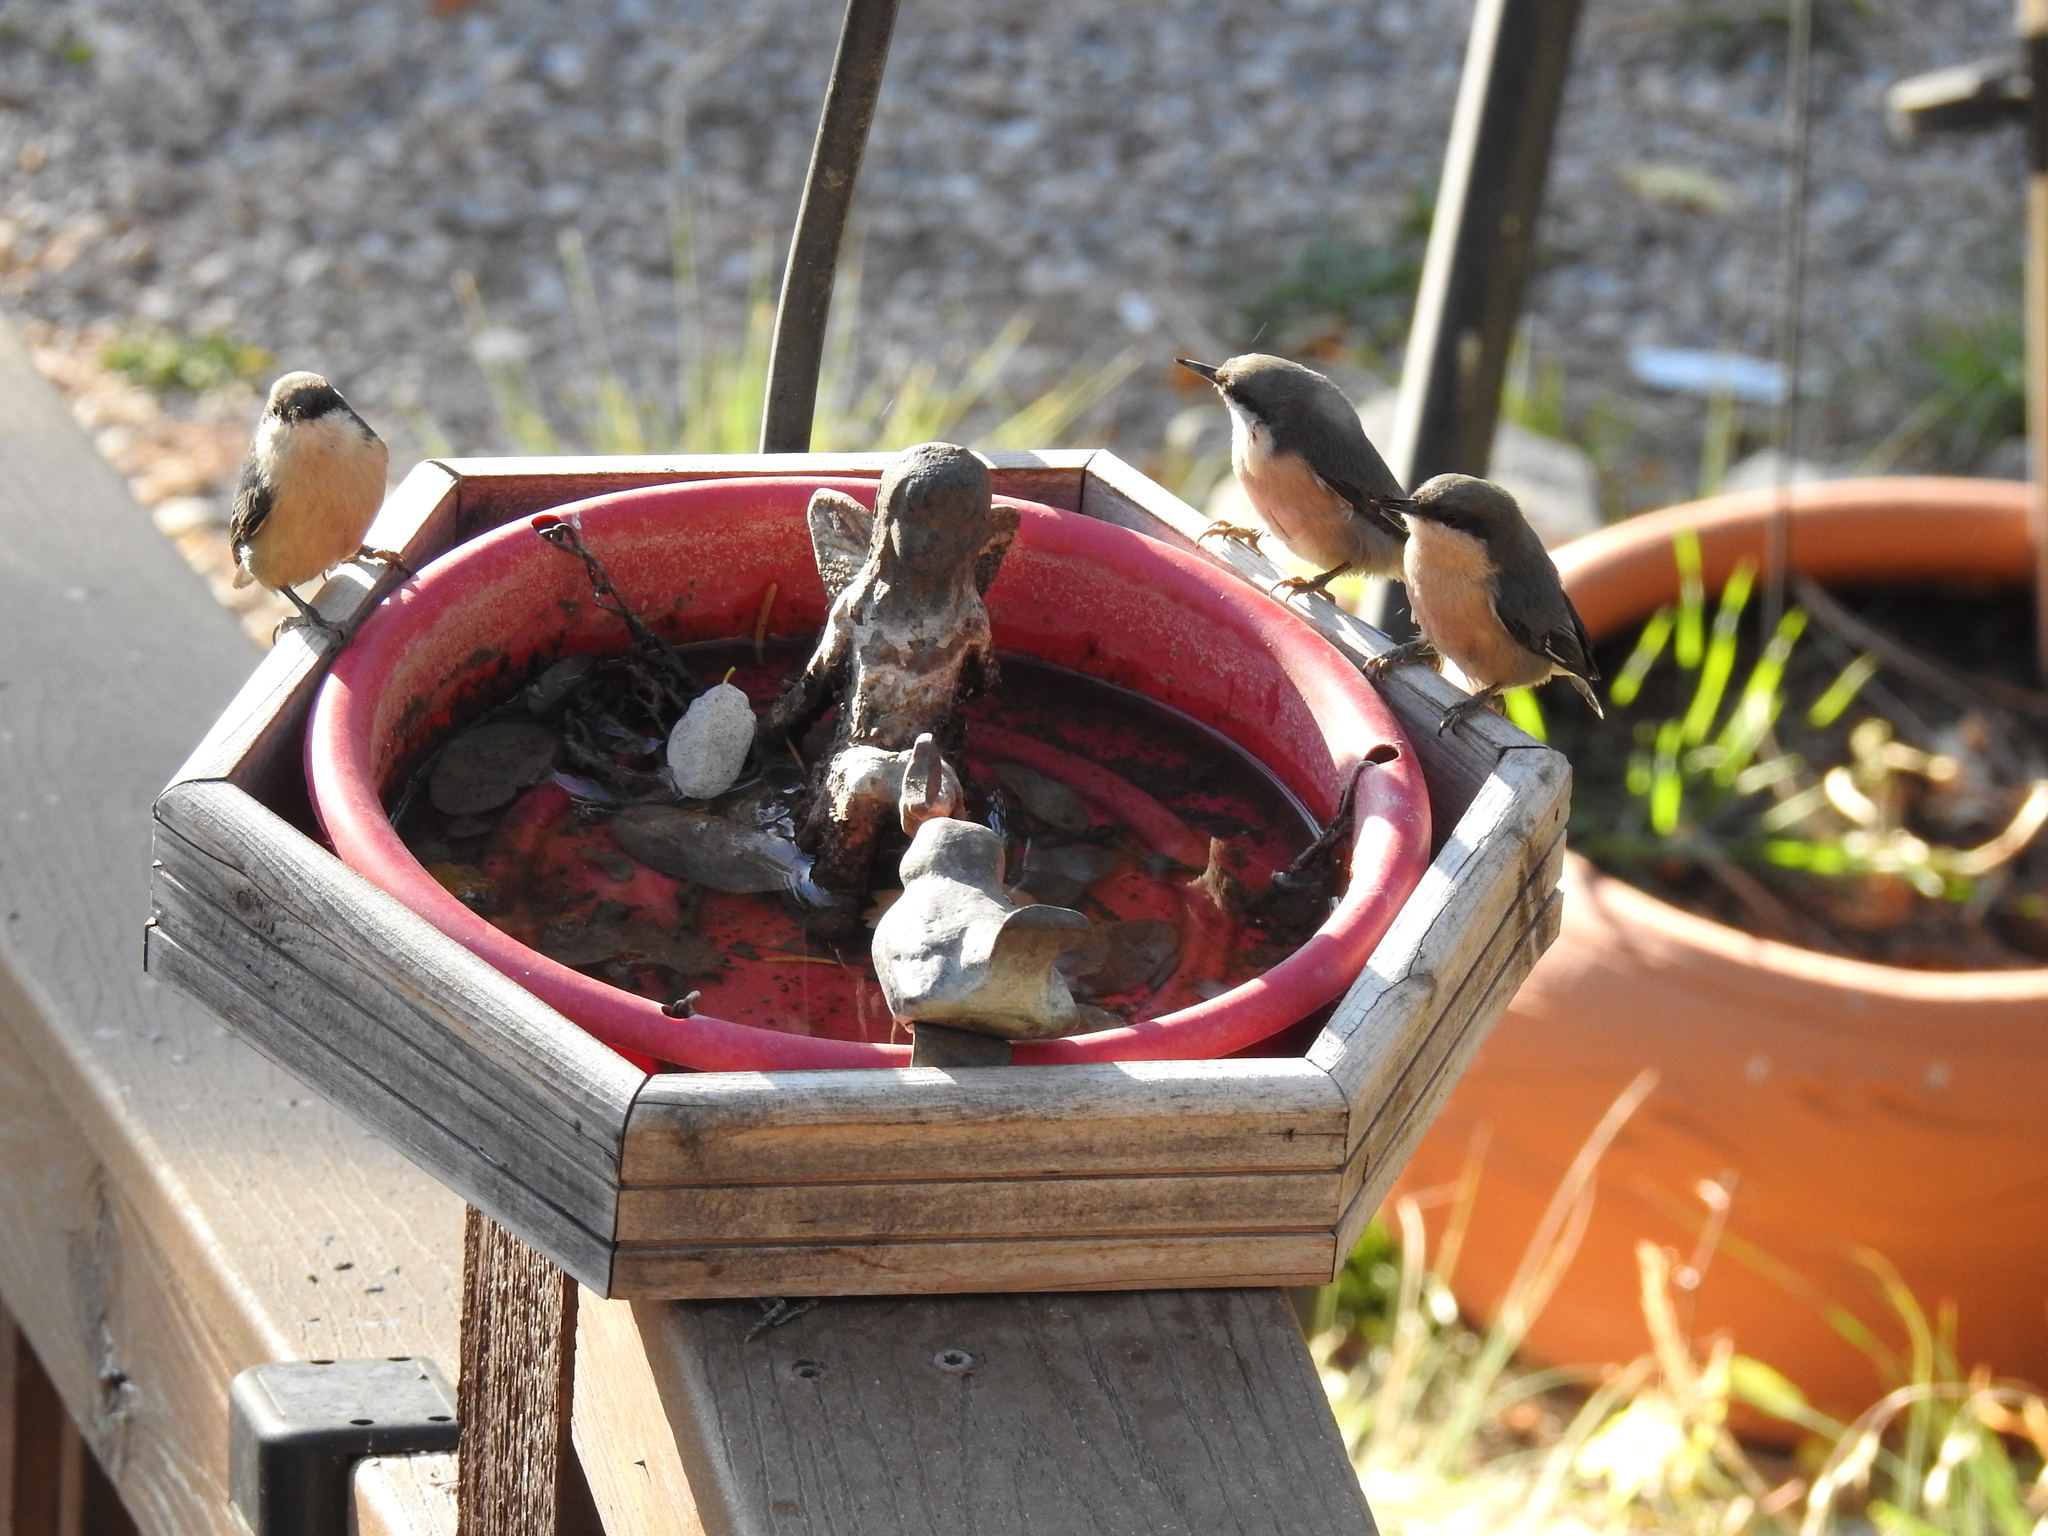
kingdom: Animalia
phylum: Chordata
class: Aves
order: Passeriformes
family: Sittidae
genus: Sitta
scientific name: Sitta pygmaea
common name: Pygmy nuthatch
